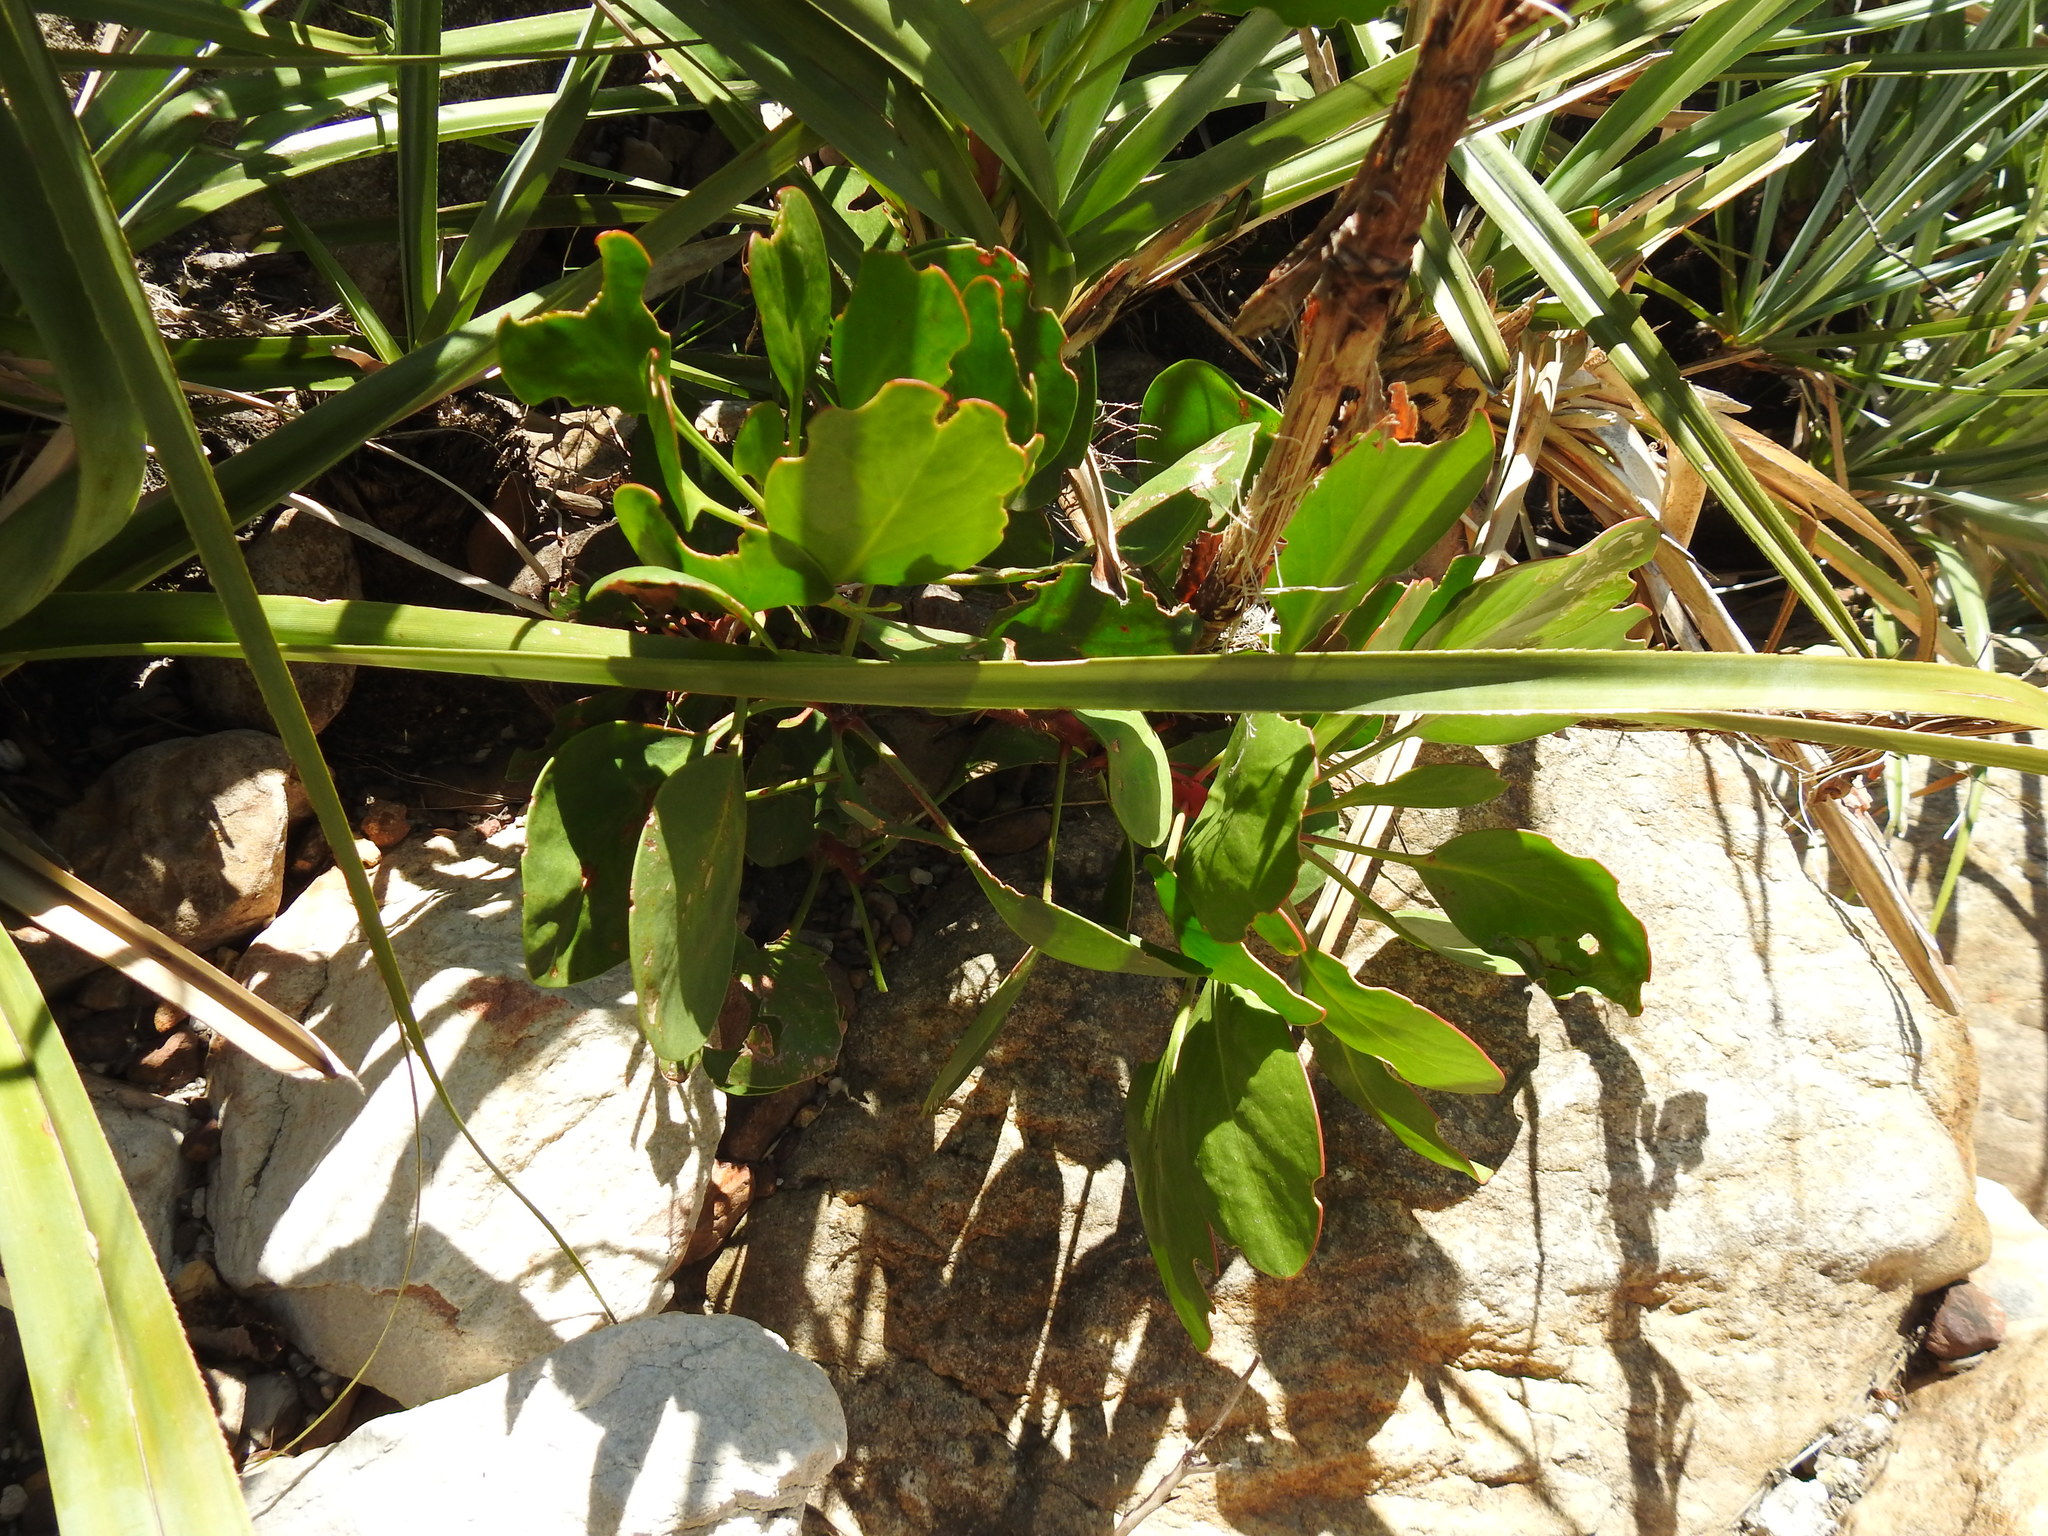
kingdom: Plantae
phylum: Tracheophyta
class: Magnoliopsida
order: Proteales
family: Proteaceae
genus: Protea
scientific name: Protea cynaroides
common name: King protea
